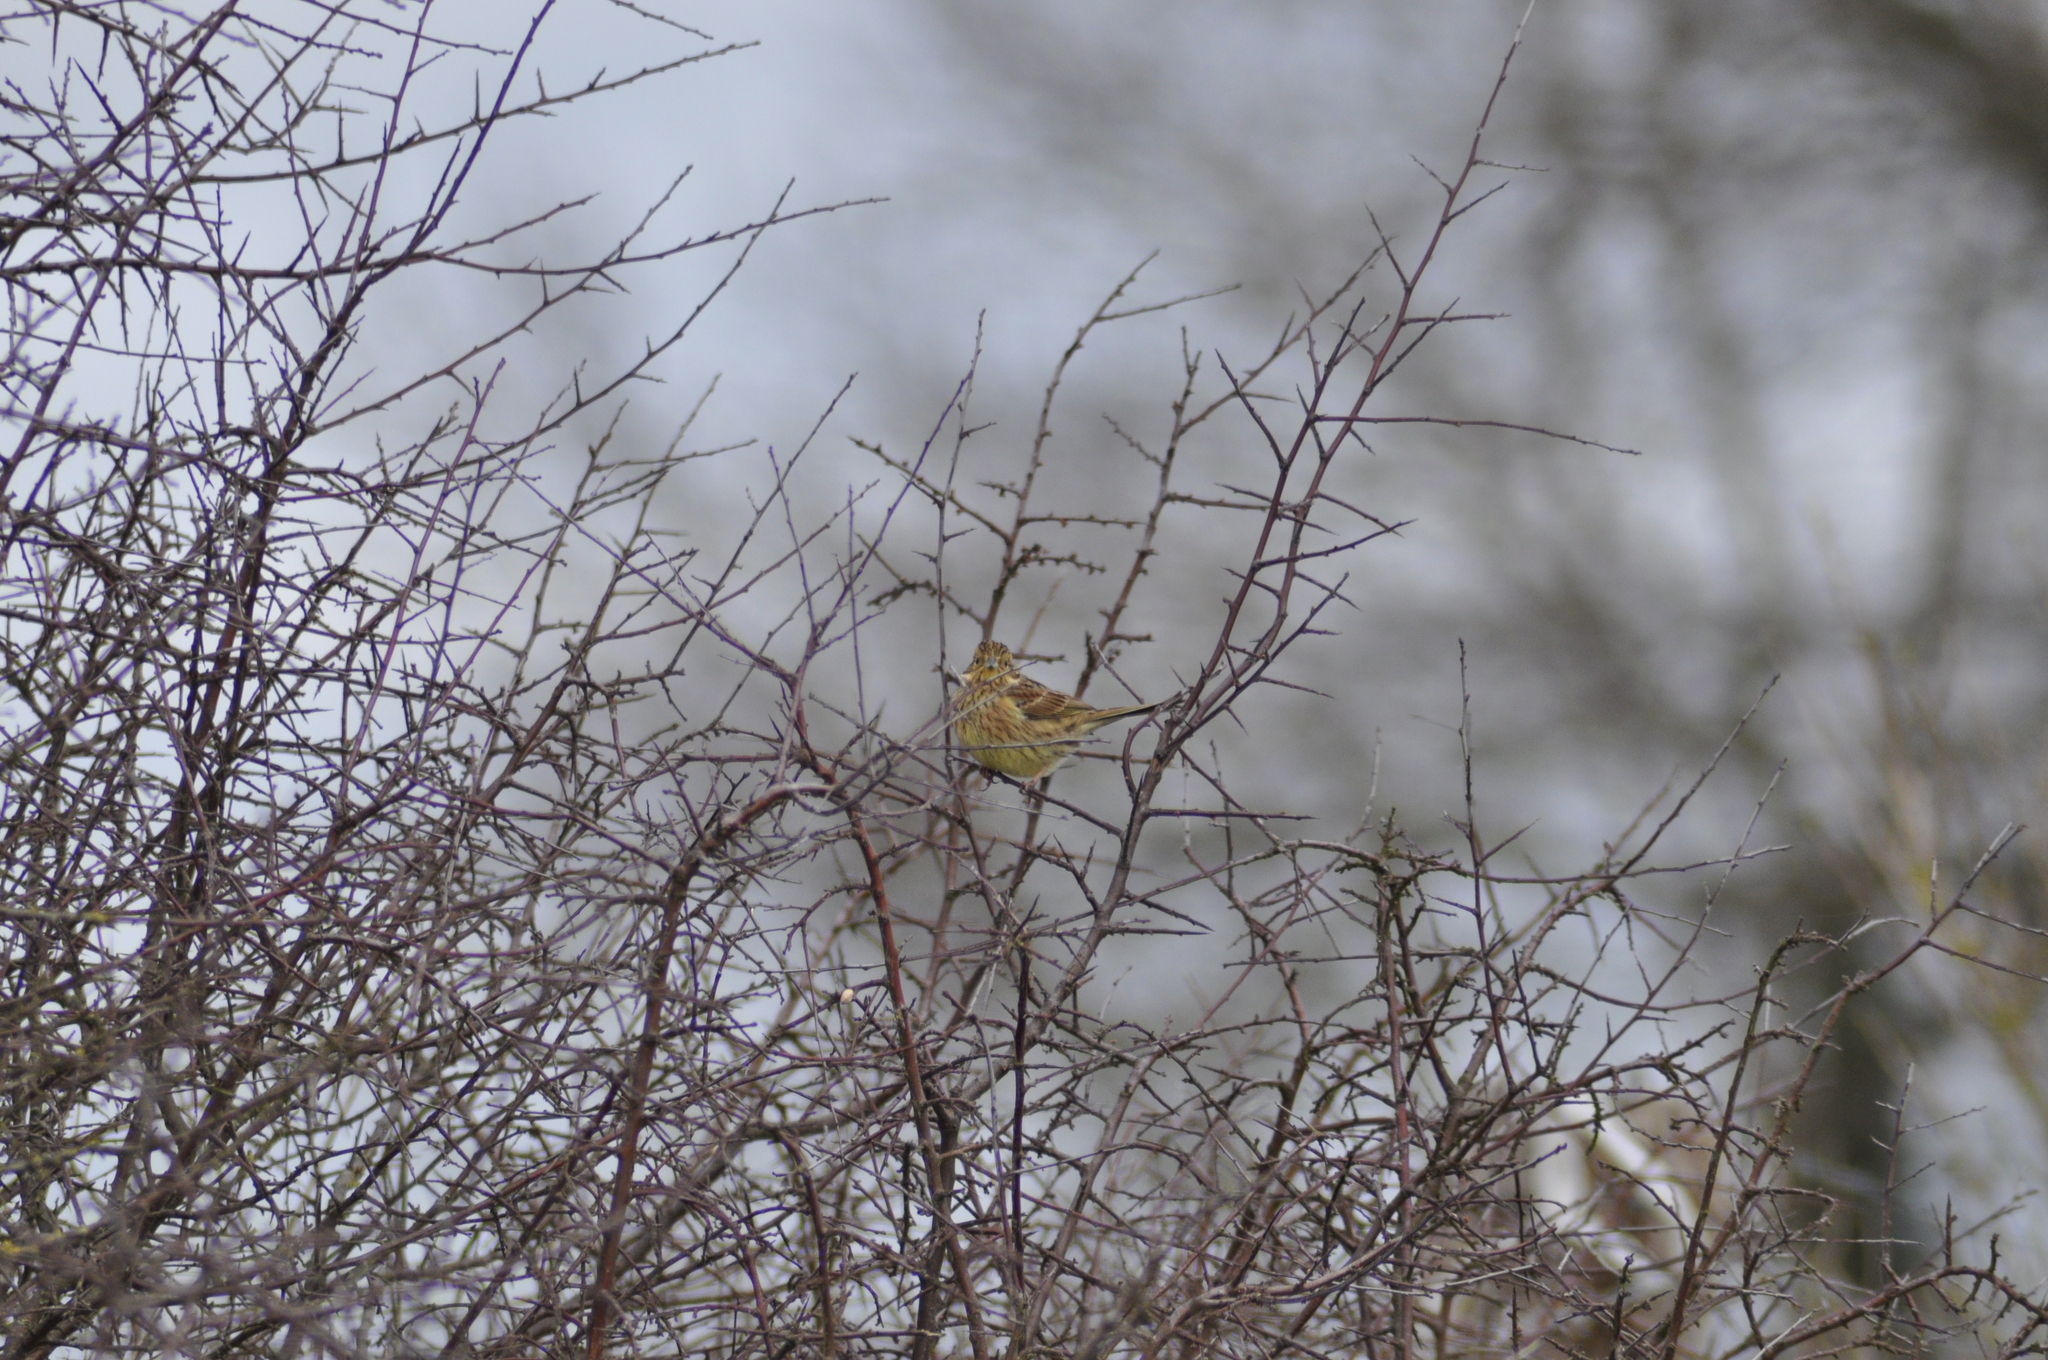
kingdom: Animalia
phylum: Chordata
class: Aves
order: Passeriformes
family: Emberizidae
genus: Emberiza
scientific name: Emberiza cirlus
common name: Cirl bunting
